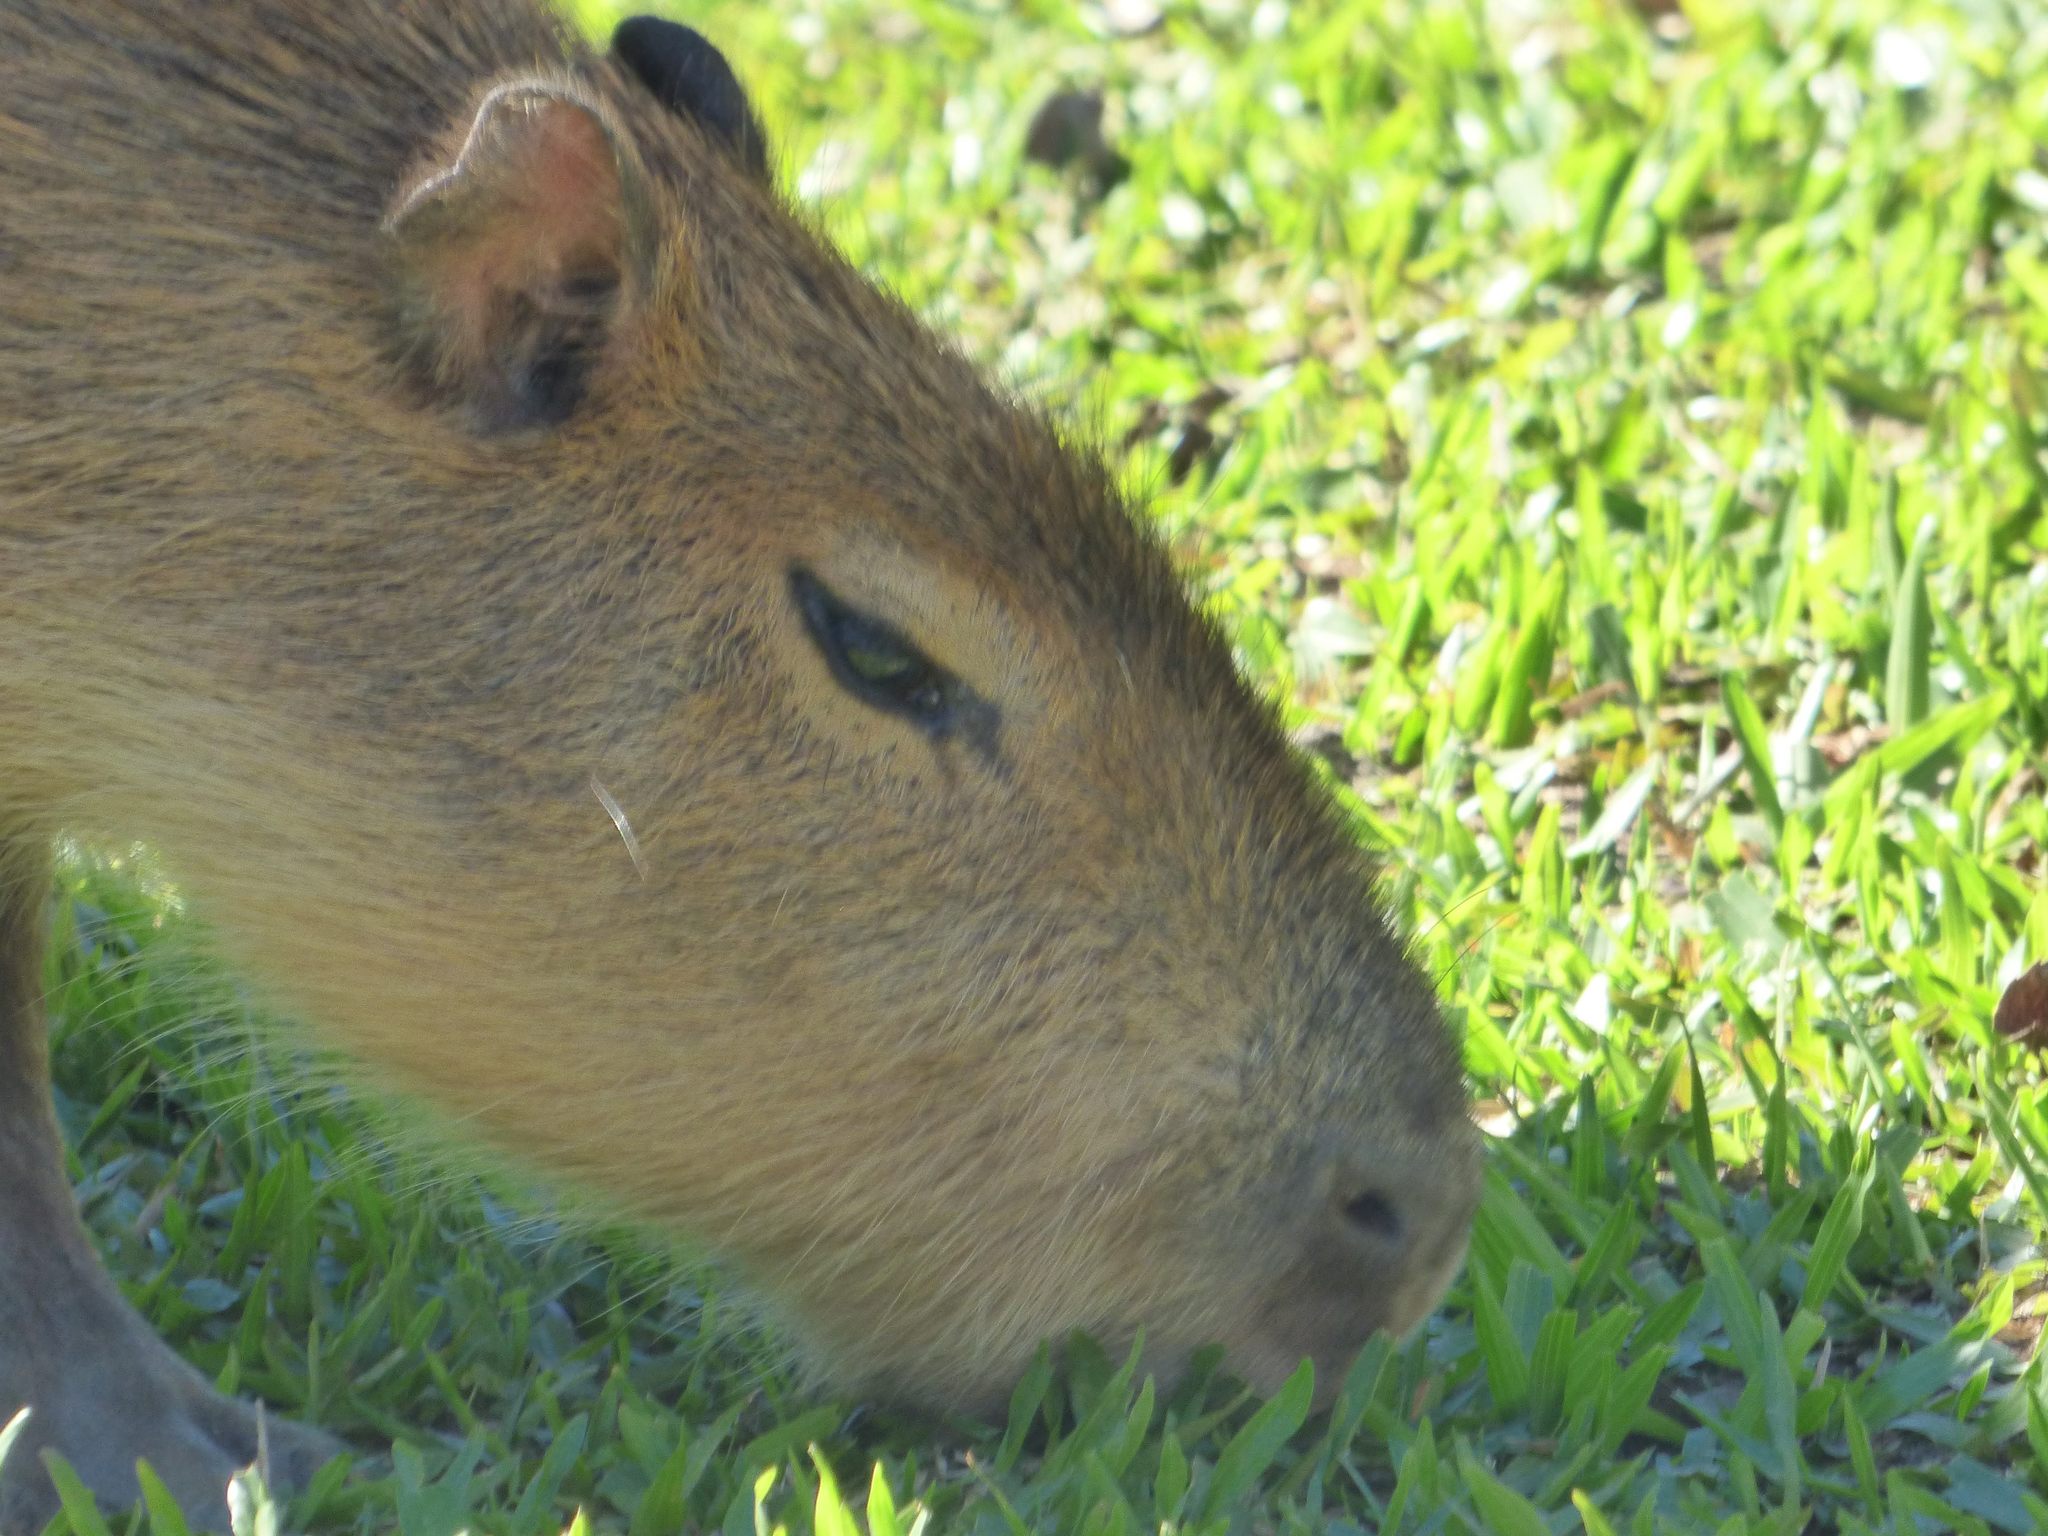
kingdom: Animalia
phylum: Chordata
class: Mammalia
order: Rodentia
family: Caviidae
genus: Hydrochoerus
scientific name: Hydrochoerus hydrochaeris
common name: Capybara
